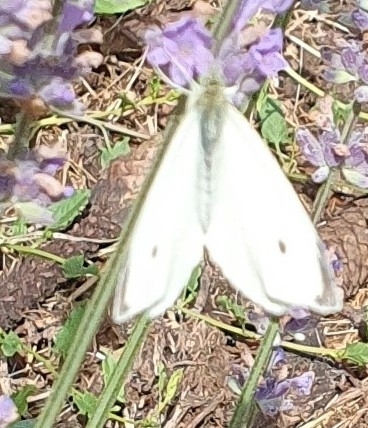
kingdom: Animalia
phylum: Arthropoda
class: Insecta
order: Lepidoptera
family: Pieridae
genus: Pieris
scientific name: Pieris rapae
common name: Small white
